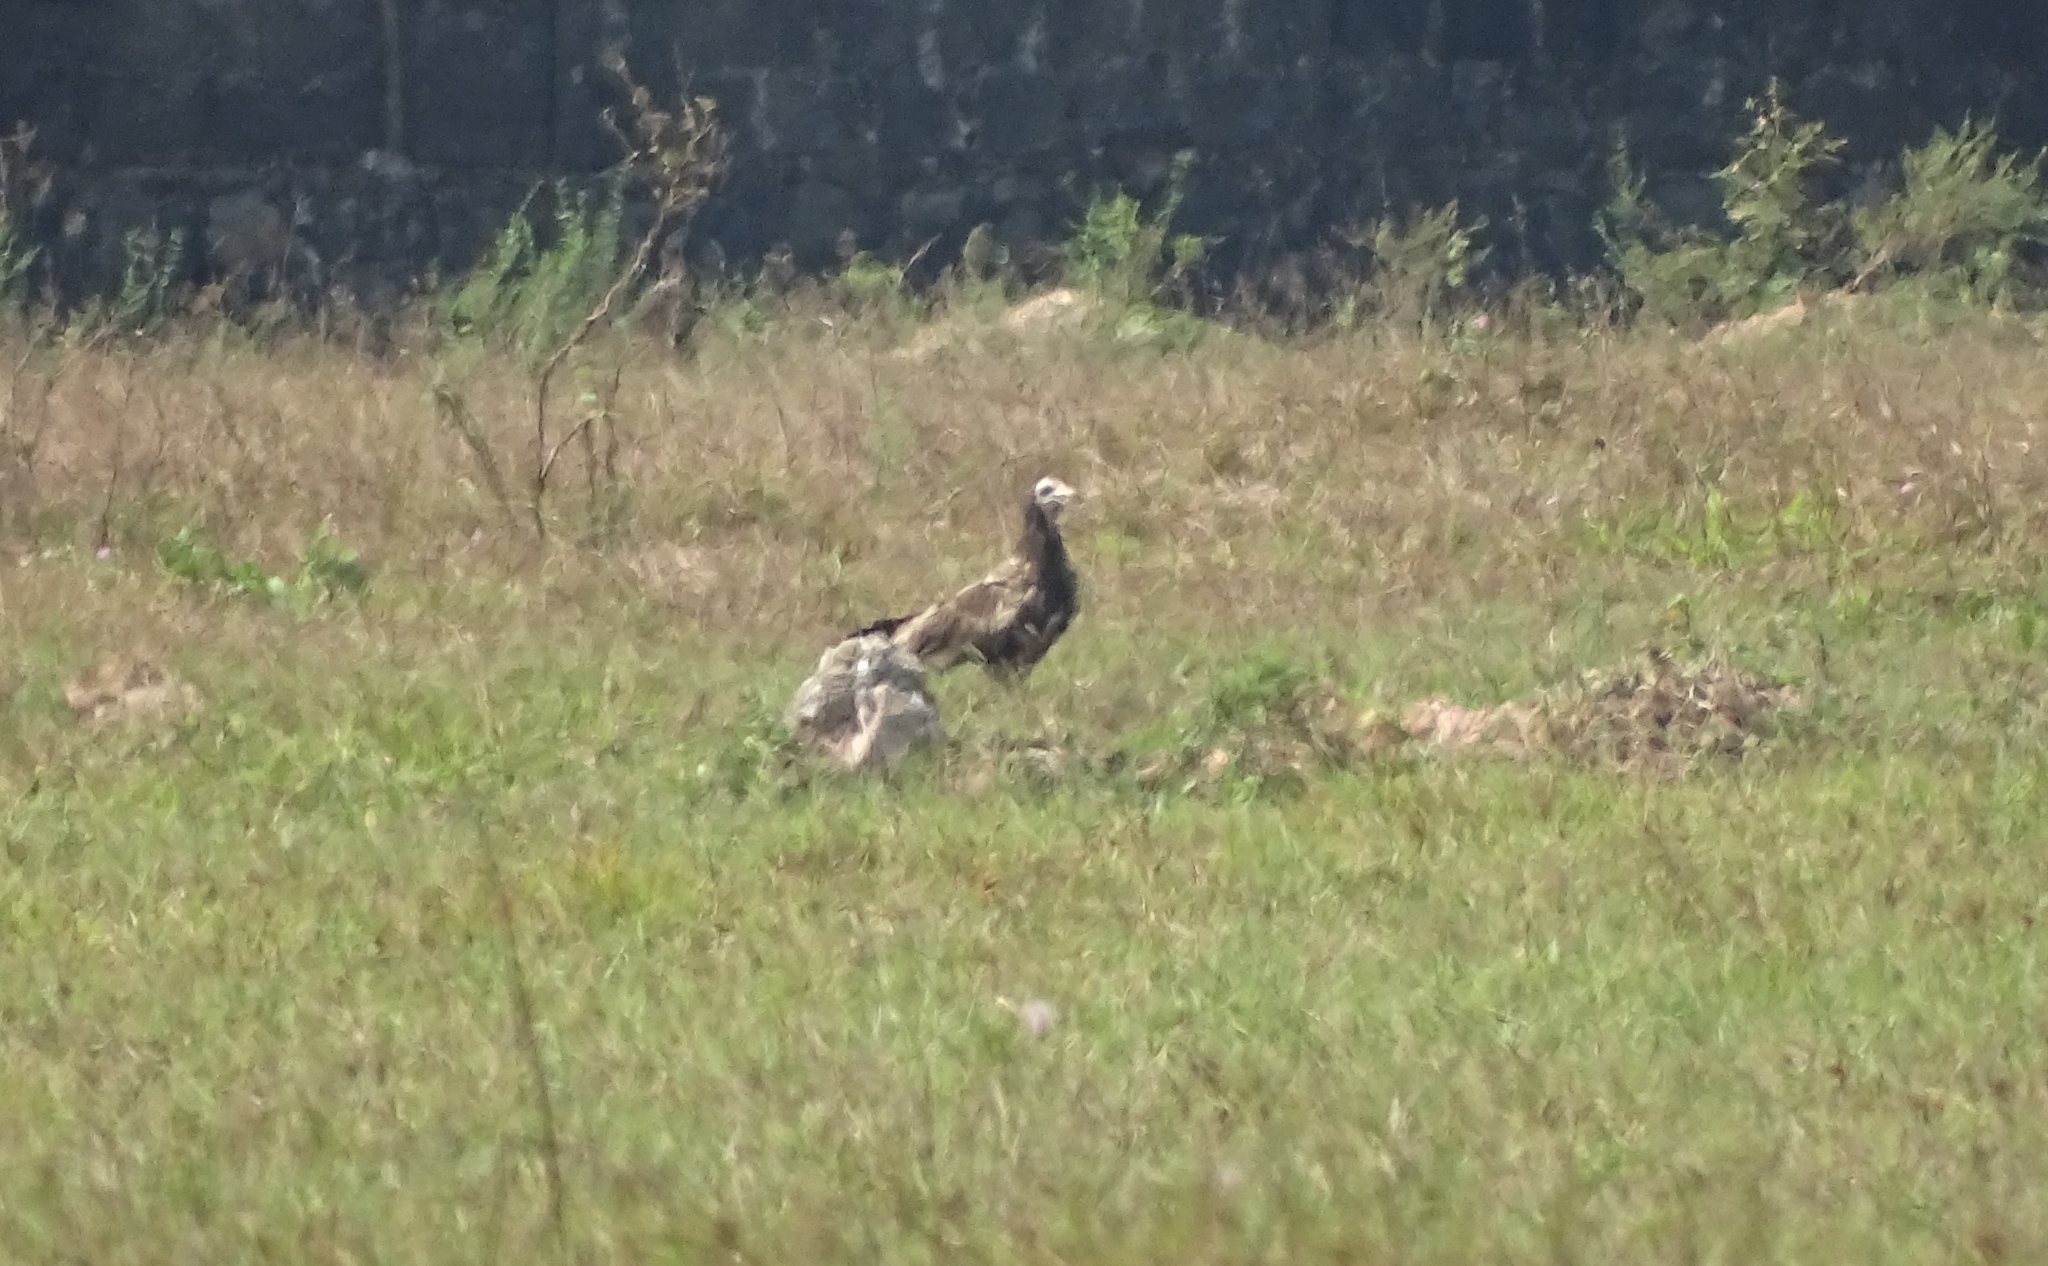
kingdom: Animalia
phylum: Chordata
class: Aves
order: Accipitriformes
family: Accipitridae
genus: Neophron
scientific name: Neophron percnopterus
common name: Egyptian vulture
